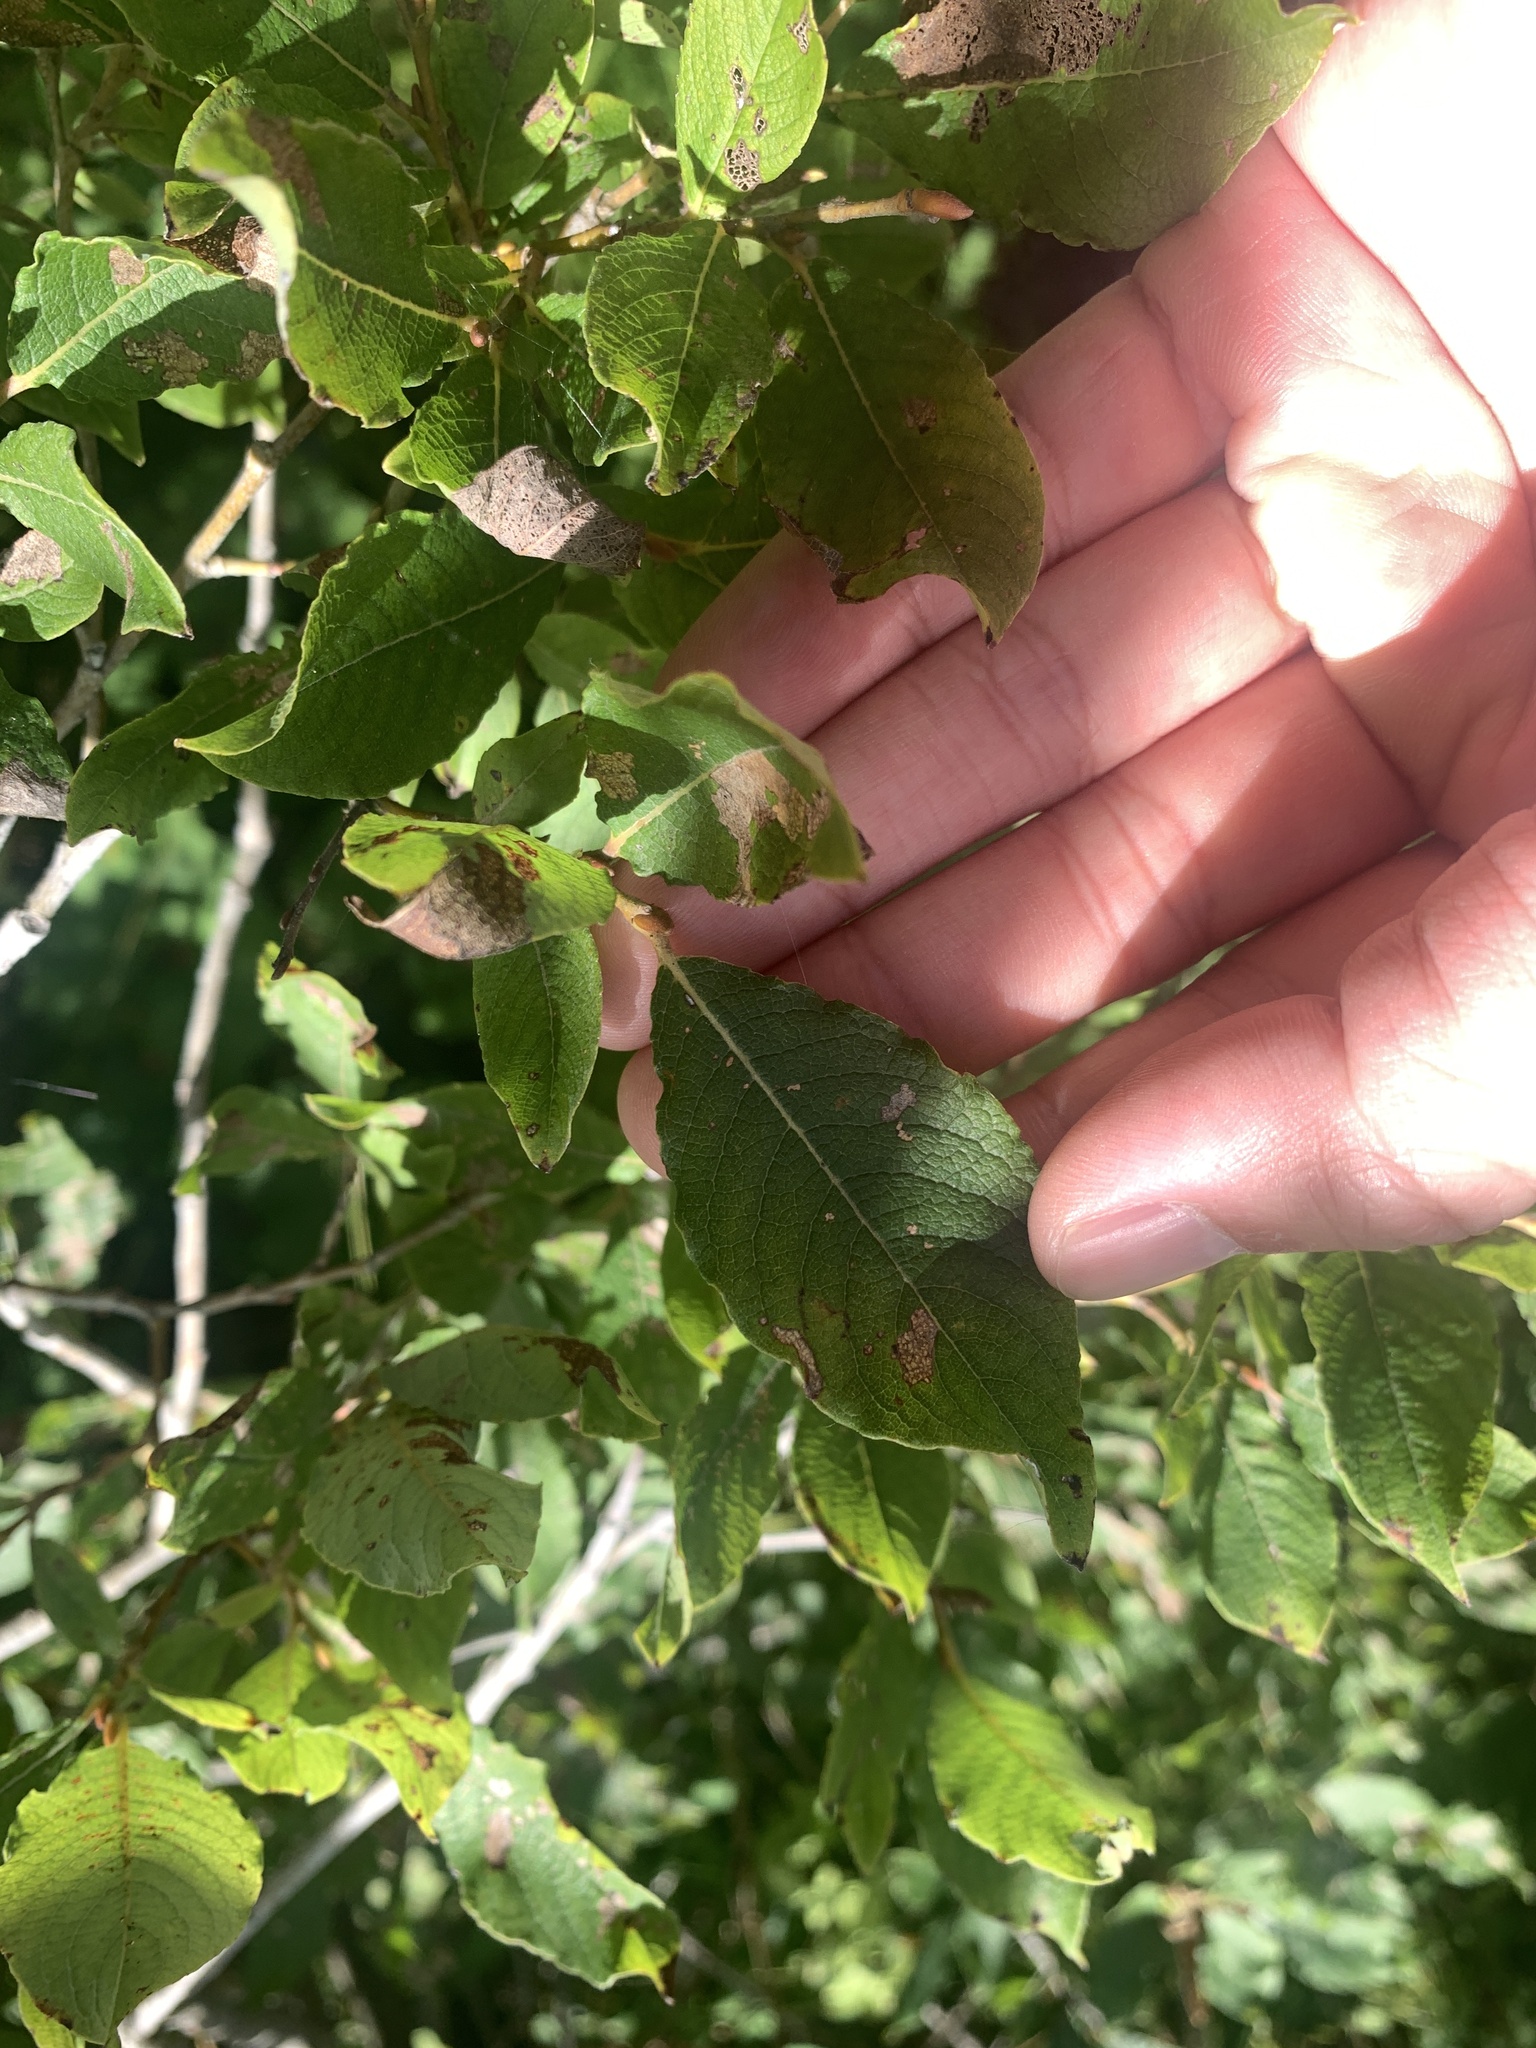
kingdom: Plantae
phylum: Tracheophyta
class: Magnoliopsida
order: Malpighiales
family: Salicaceae
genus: Salix
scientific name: Salix caprea
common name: Goat willow
